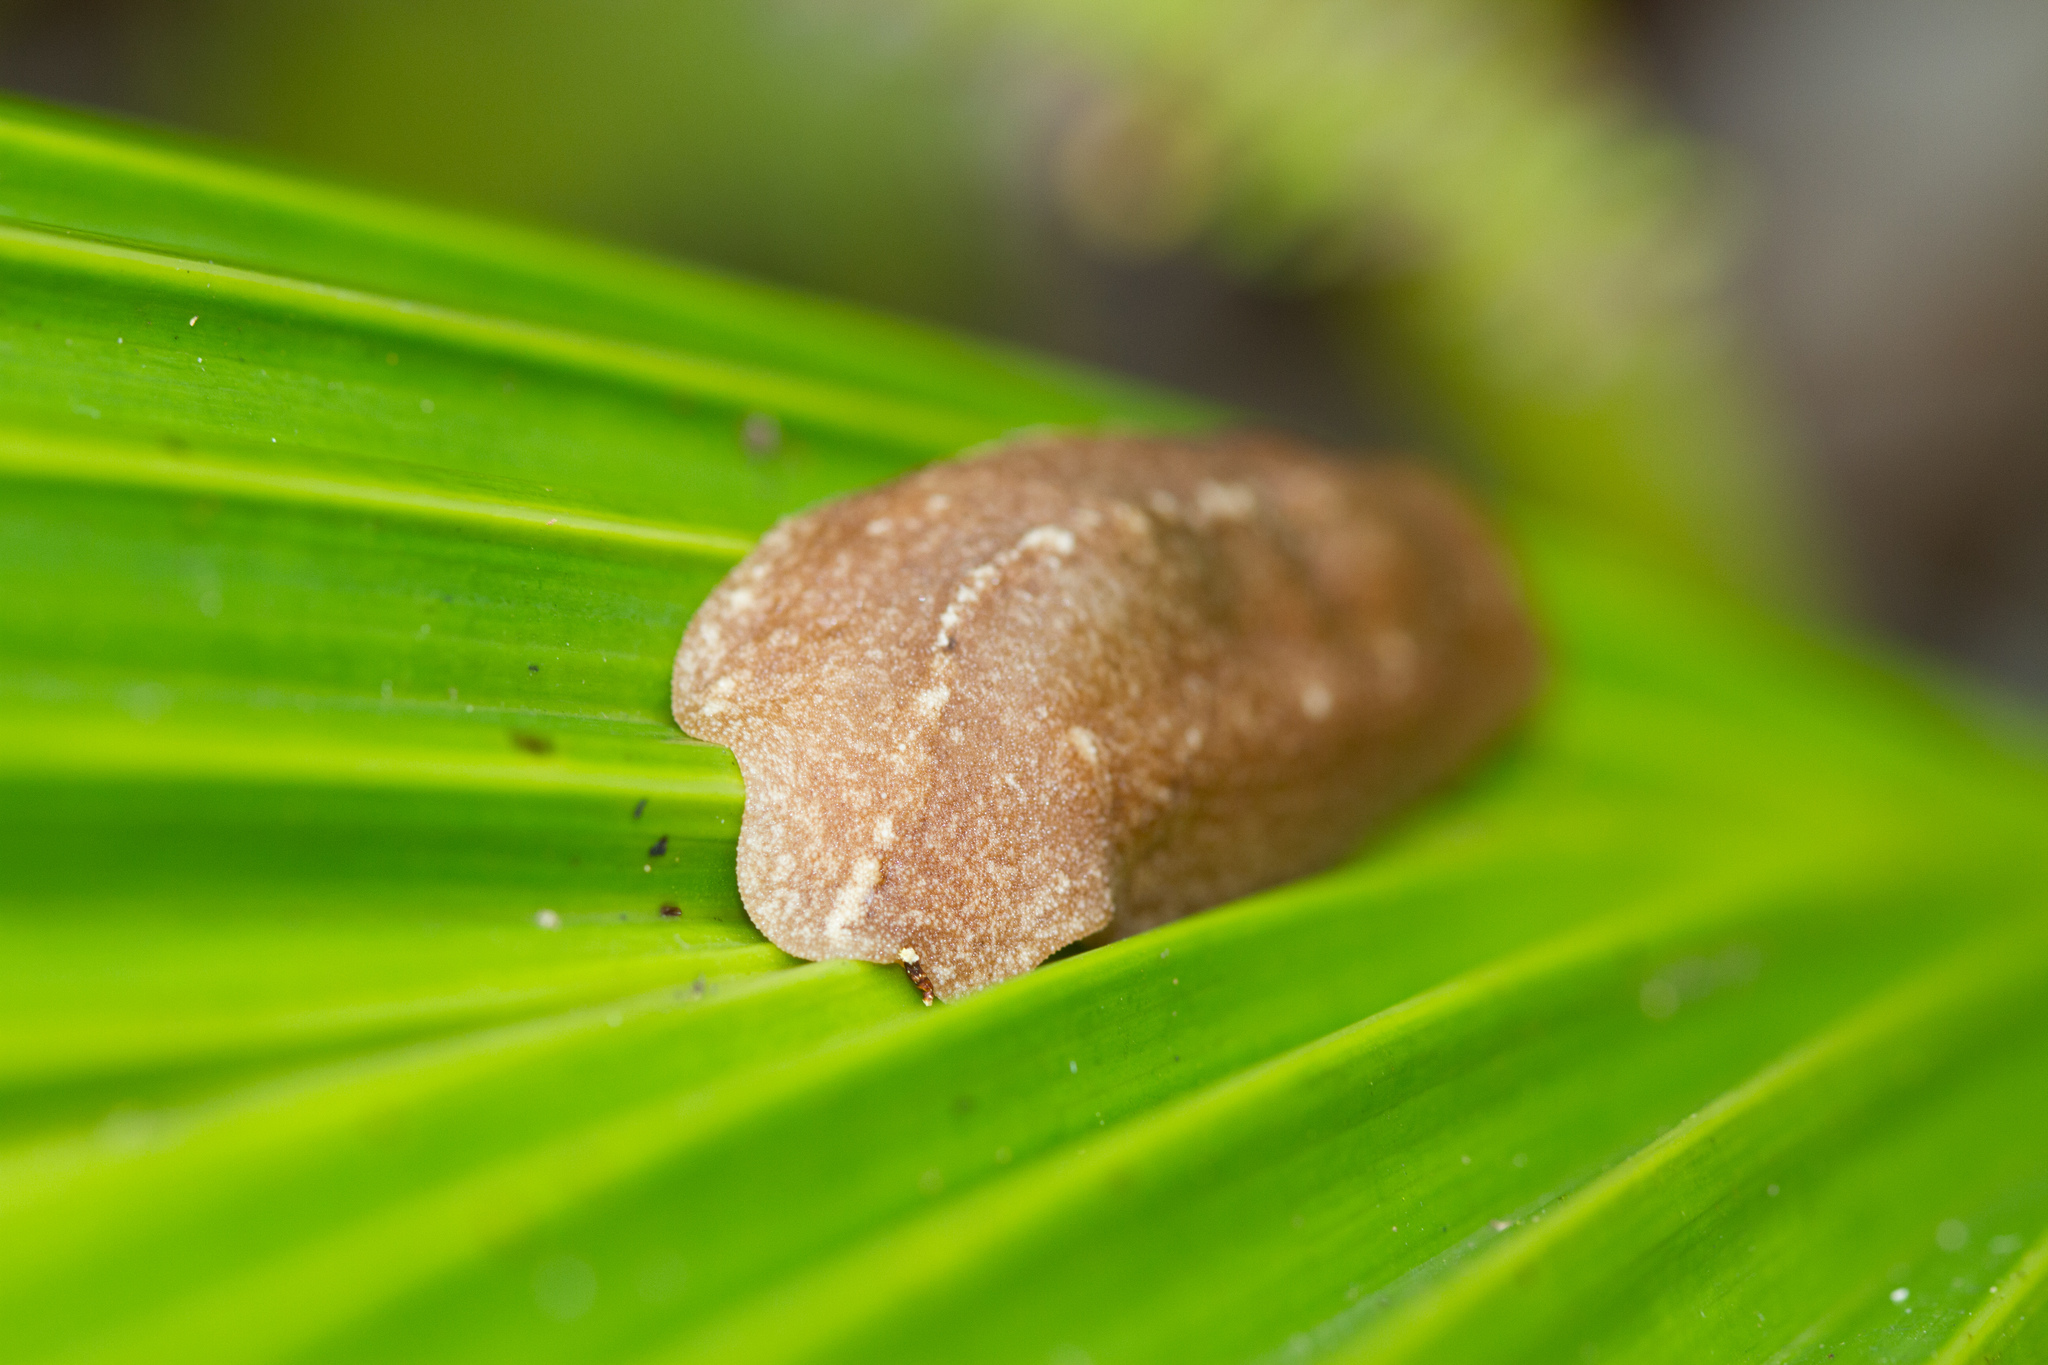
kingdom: Animalia
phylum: Mollusca
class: Gastropoda
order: Systellommatophora
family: Veronicellidae
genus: Filicaulis
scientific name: Filicaulis seychellensis
